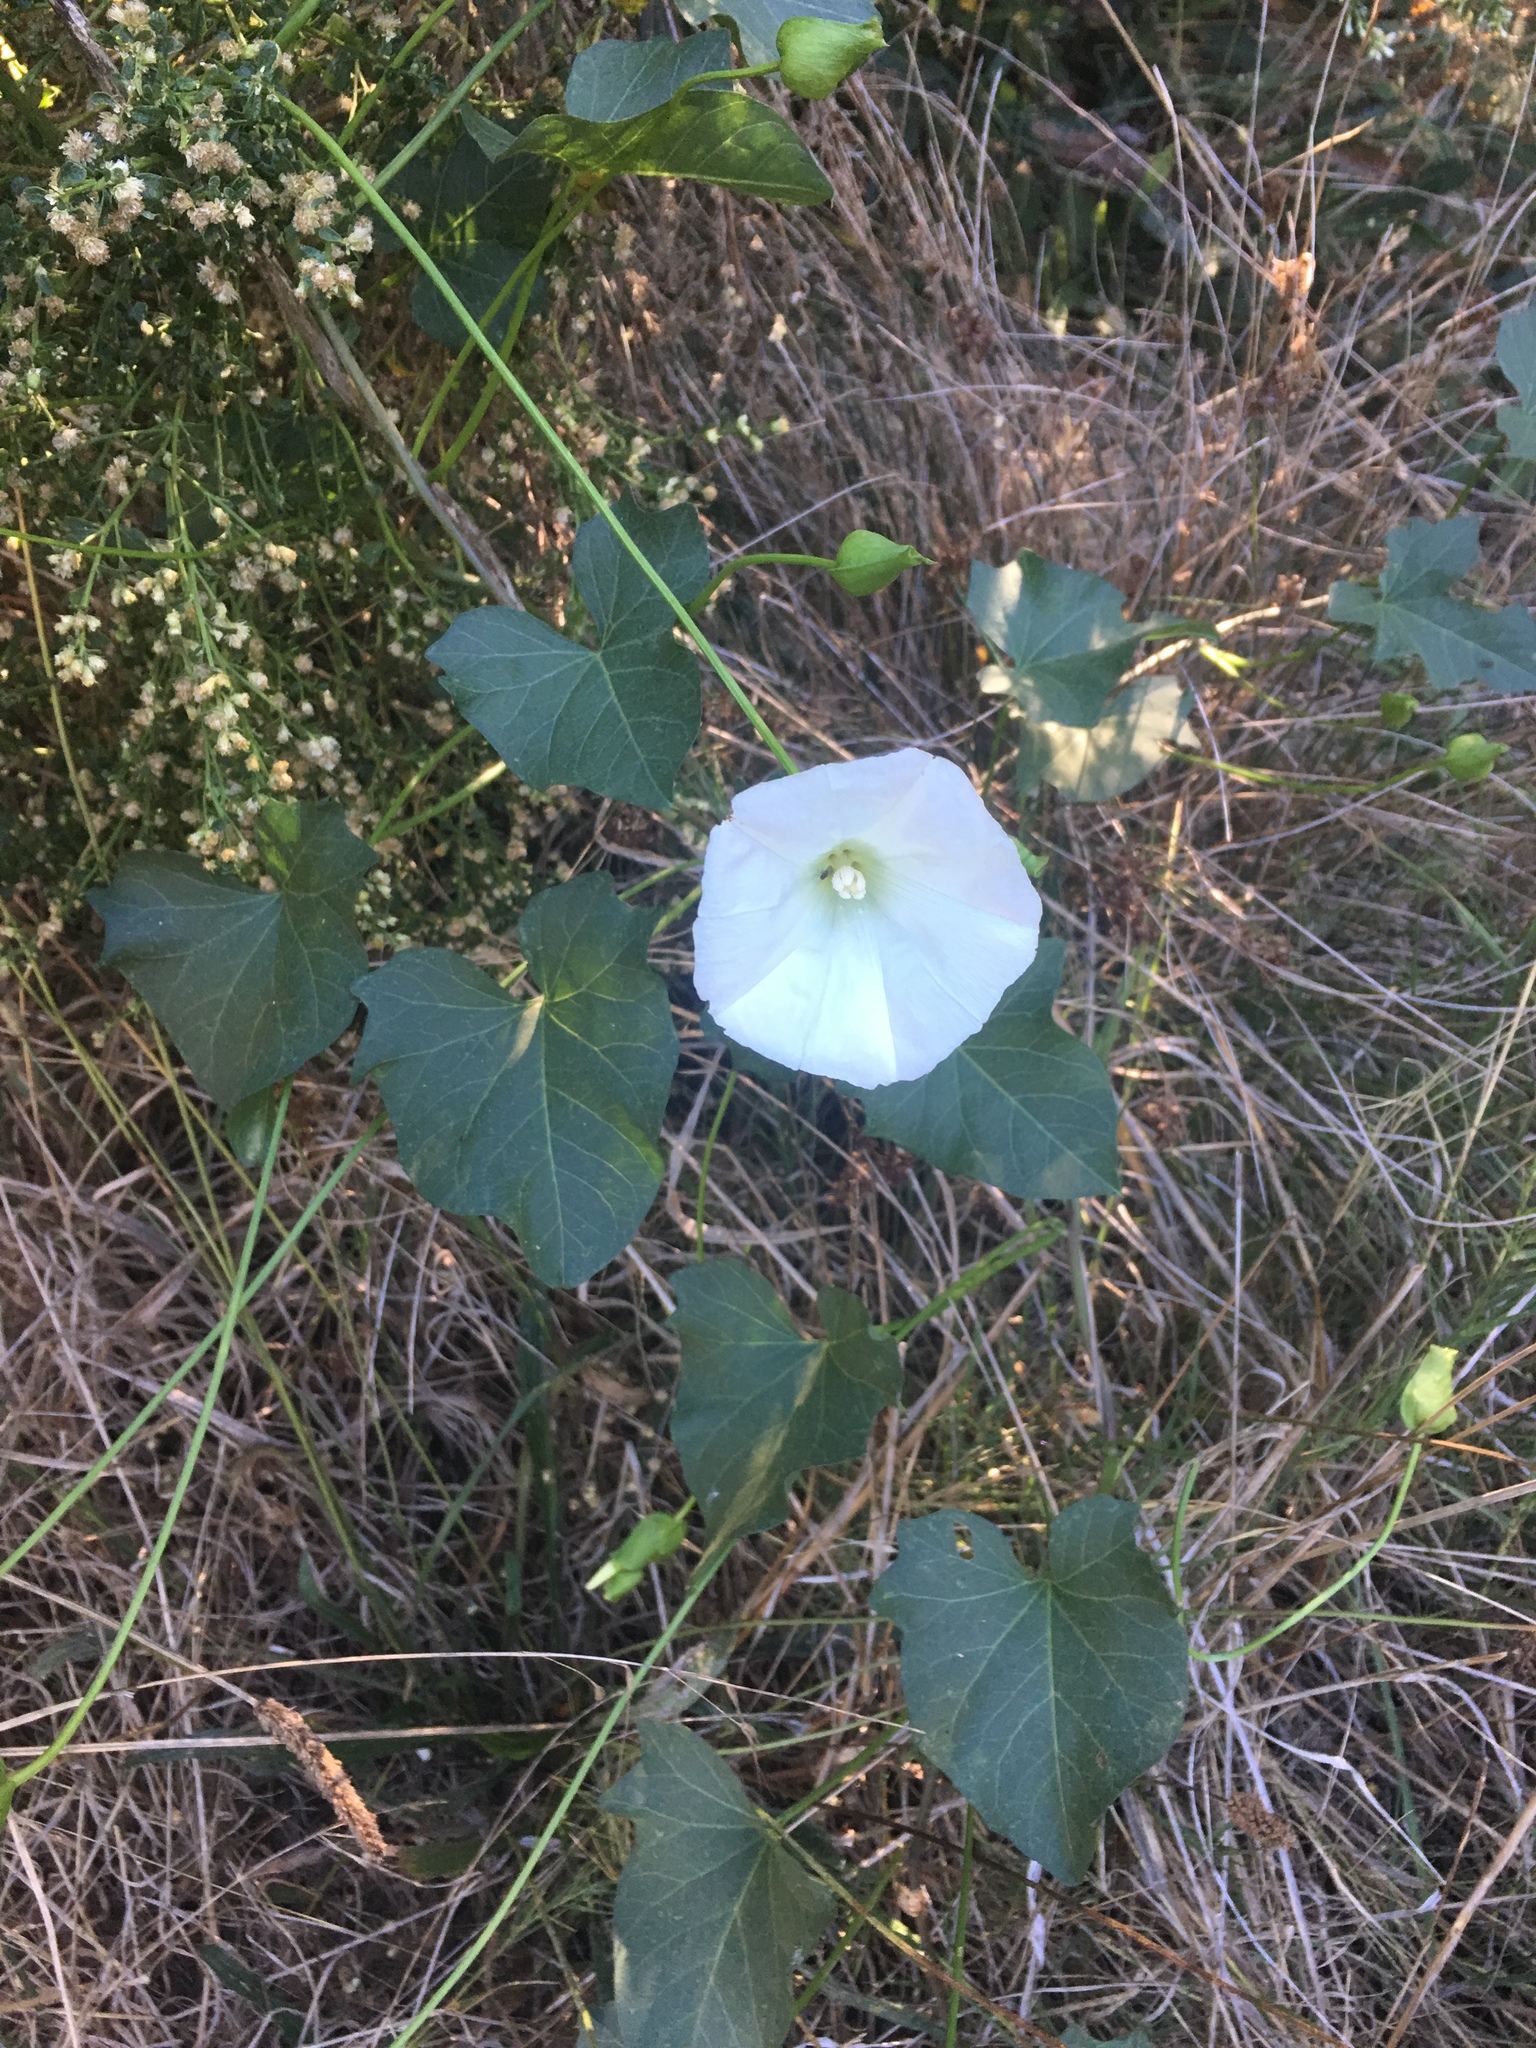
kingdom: Plantae
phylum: Tracheophyta
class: Magnoliopsida
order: Solanales
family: Convolvulaceae
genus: Calystegia
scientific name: Calystegia macrostegia
